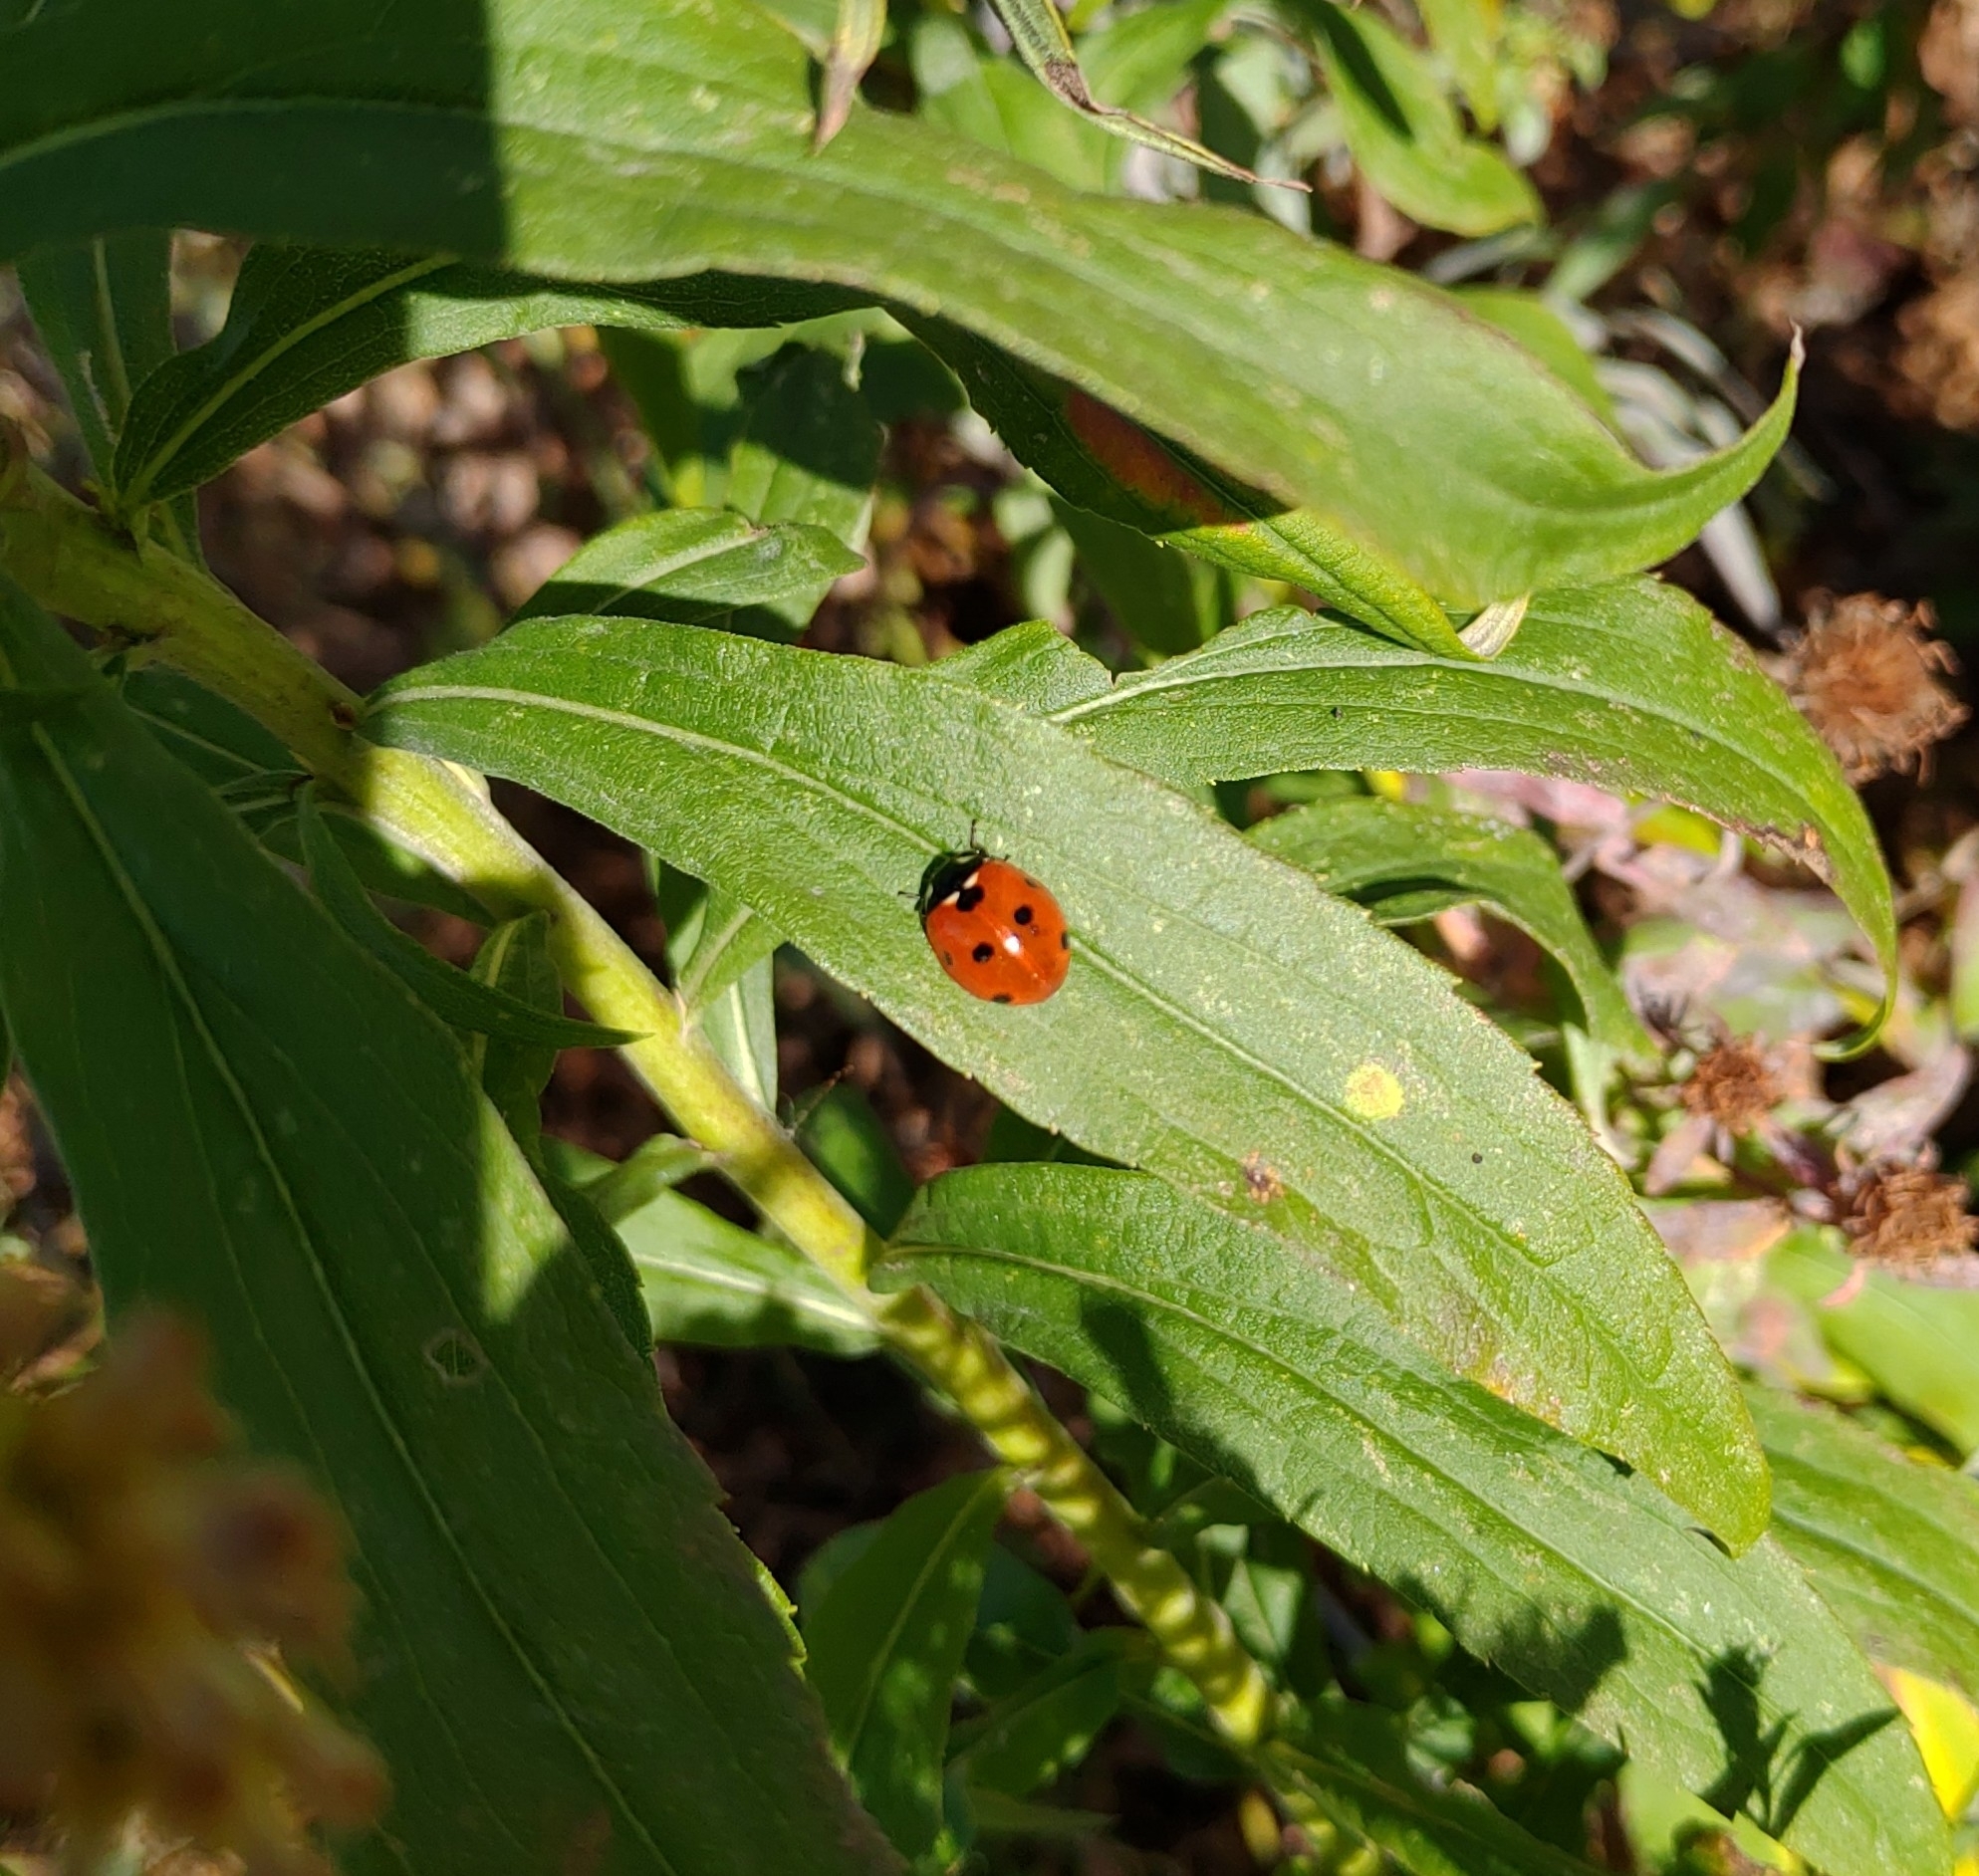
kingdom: Animalia
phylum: Arthropoda
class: Insecta
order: Coleoptera
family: Coccinellidae
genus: Coccinella
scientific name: Coccinella septempunctata
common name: Sevenspotted lady beetle
